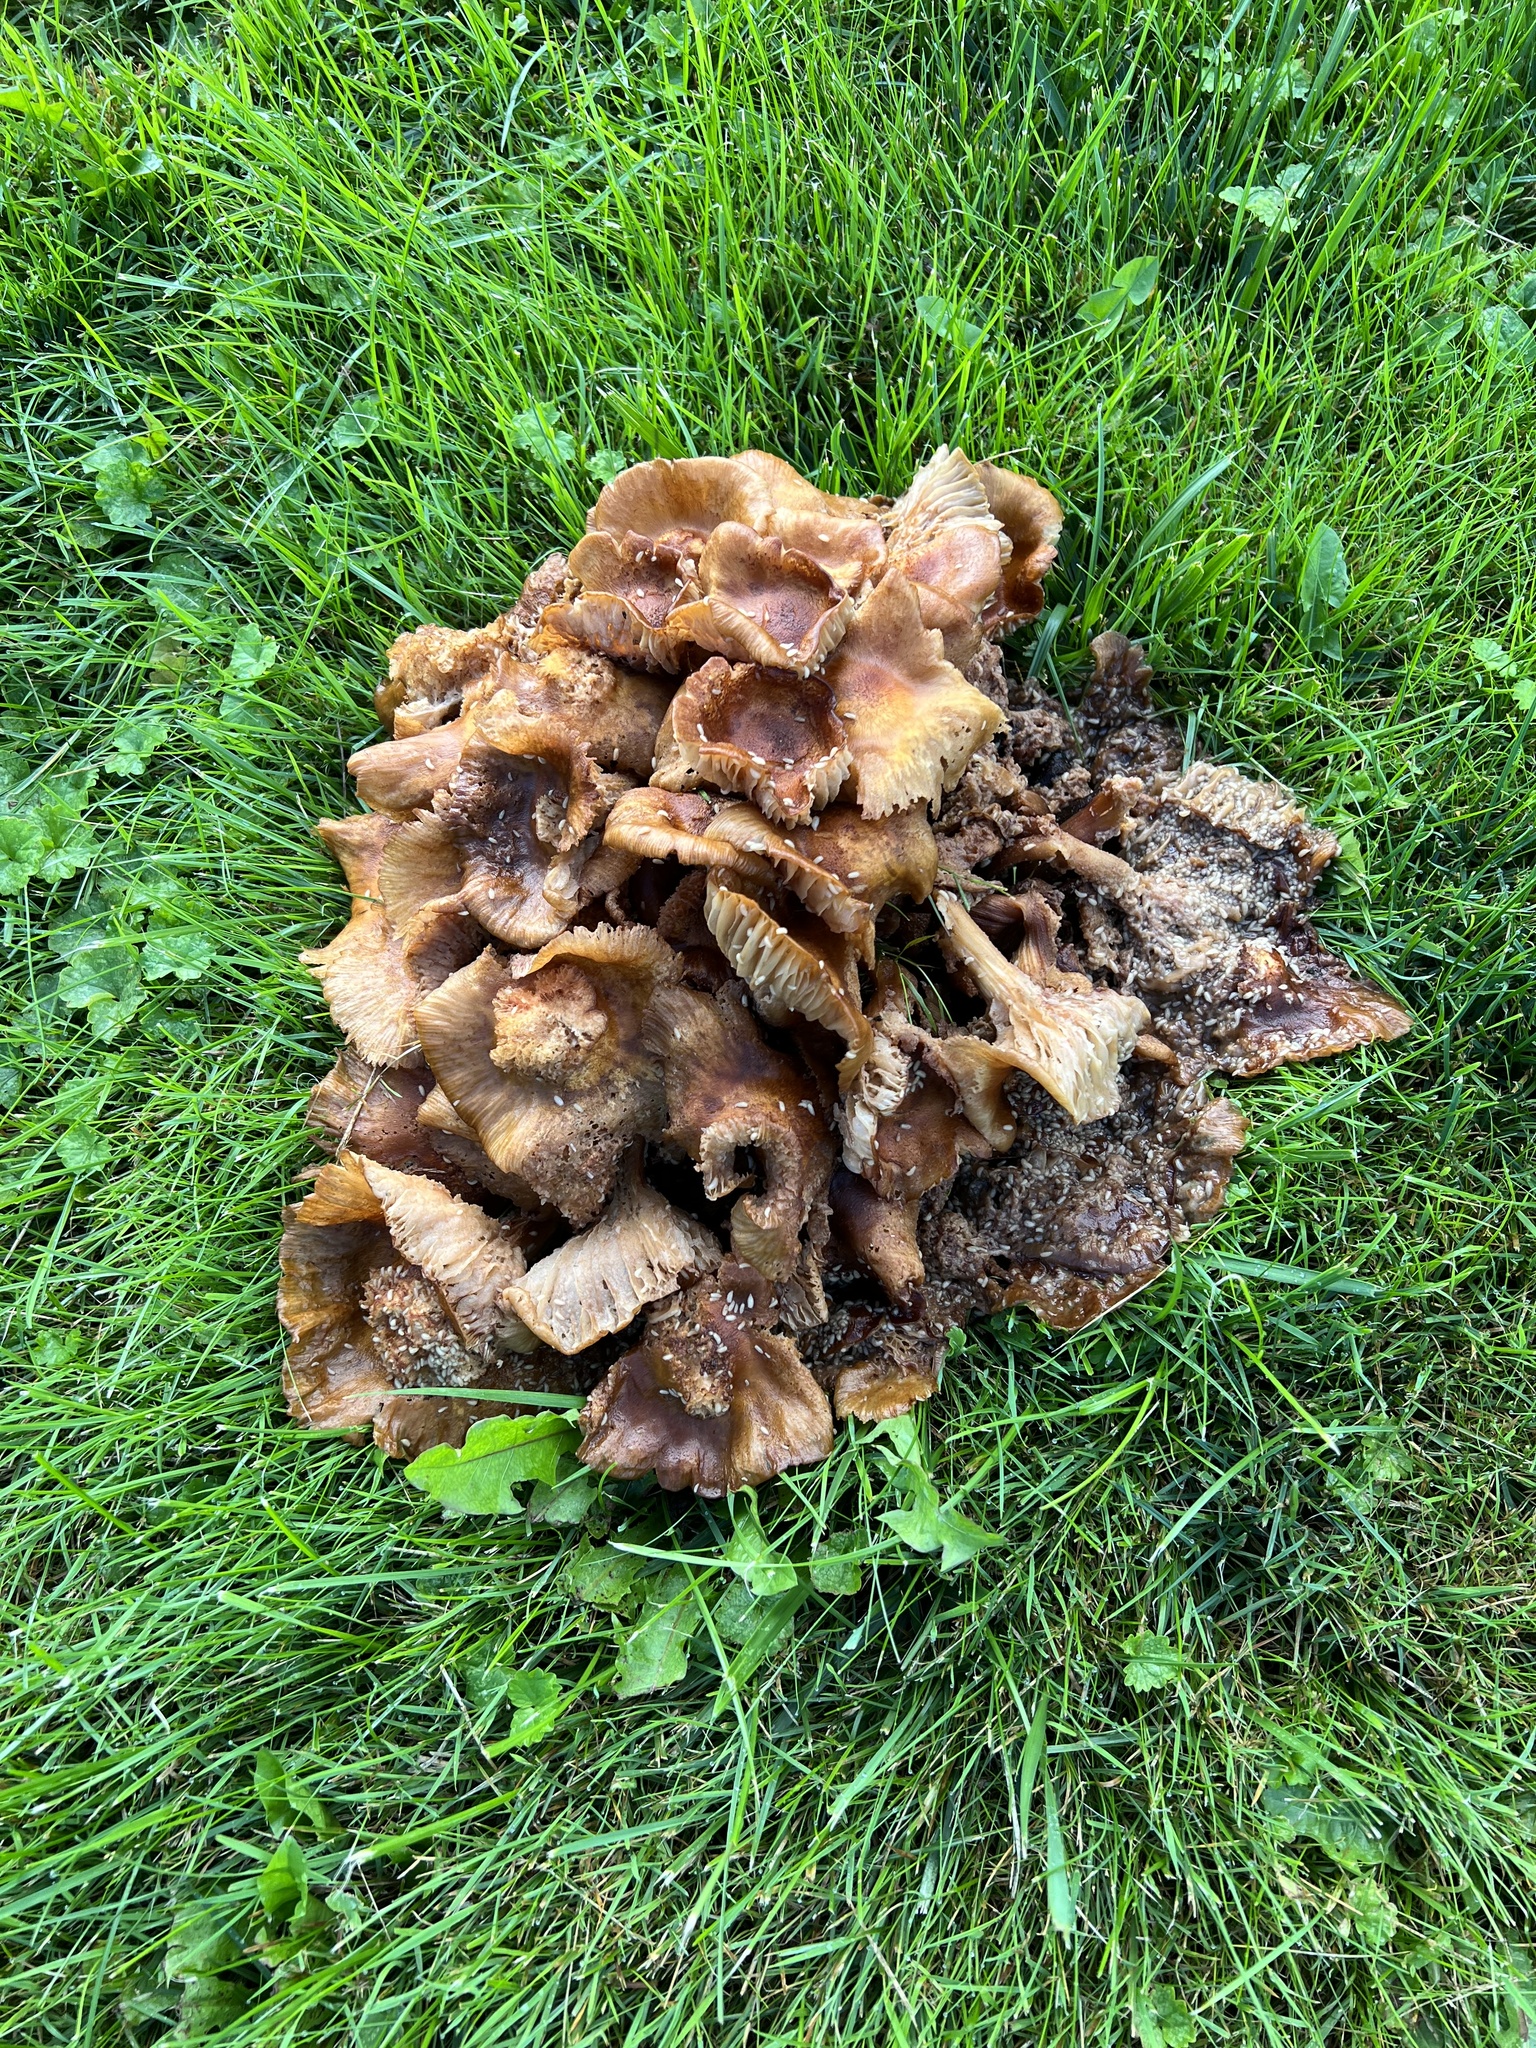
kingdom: Fungi
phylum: Basidiomycota
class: Agaricomycetes
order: Agaricales
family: Lyophyllaceae
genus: Lyophyllum
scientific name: Lyophyllum decastes
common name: Clustered domecap
